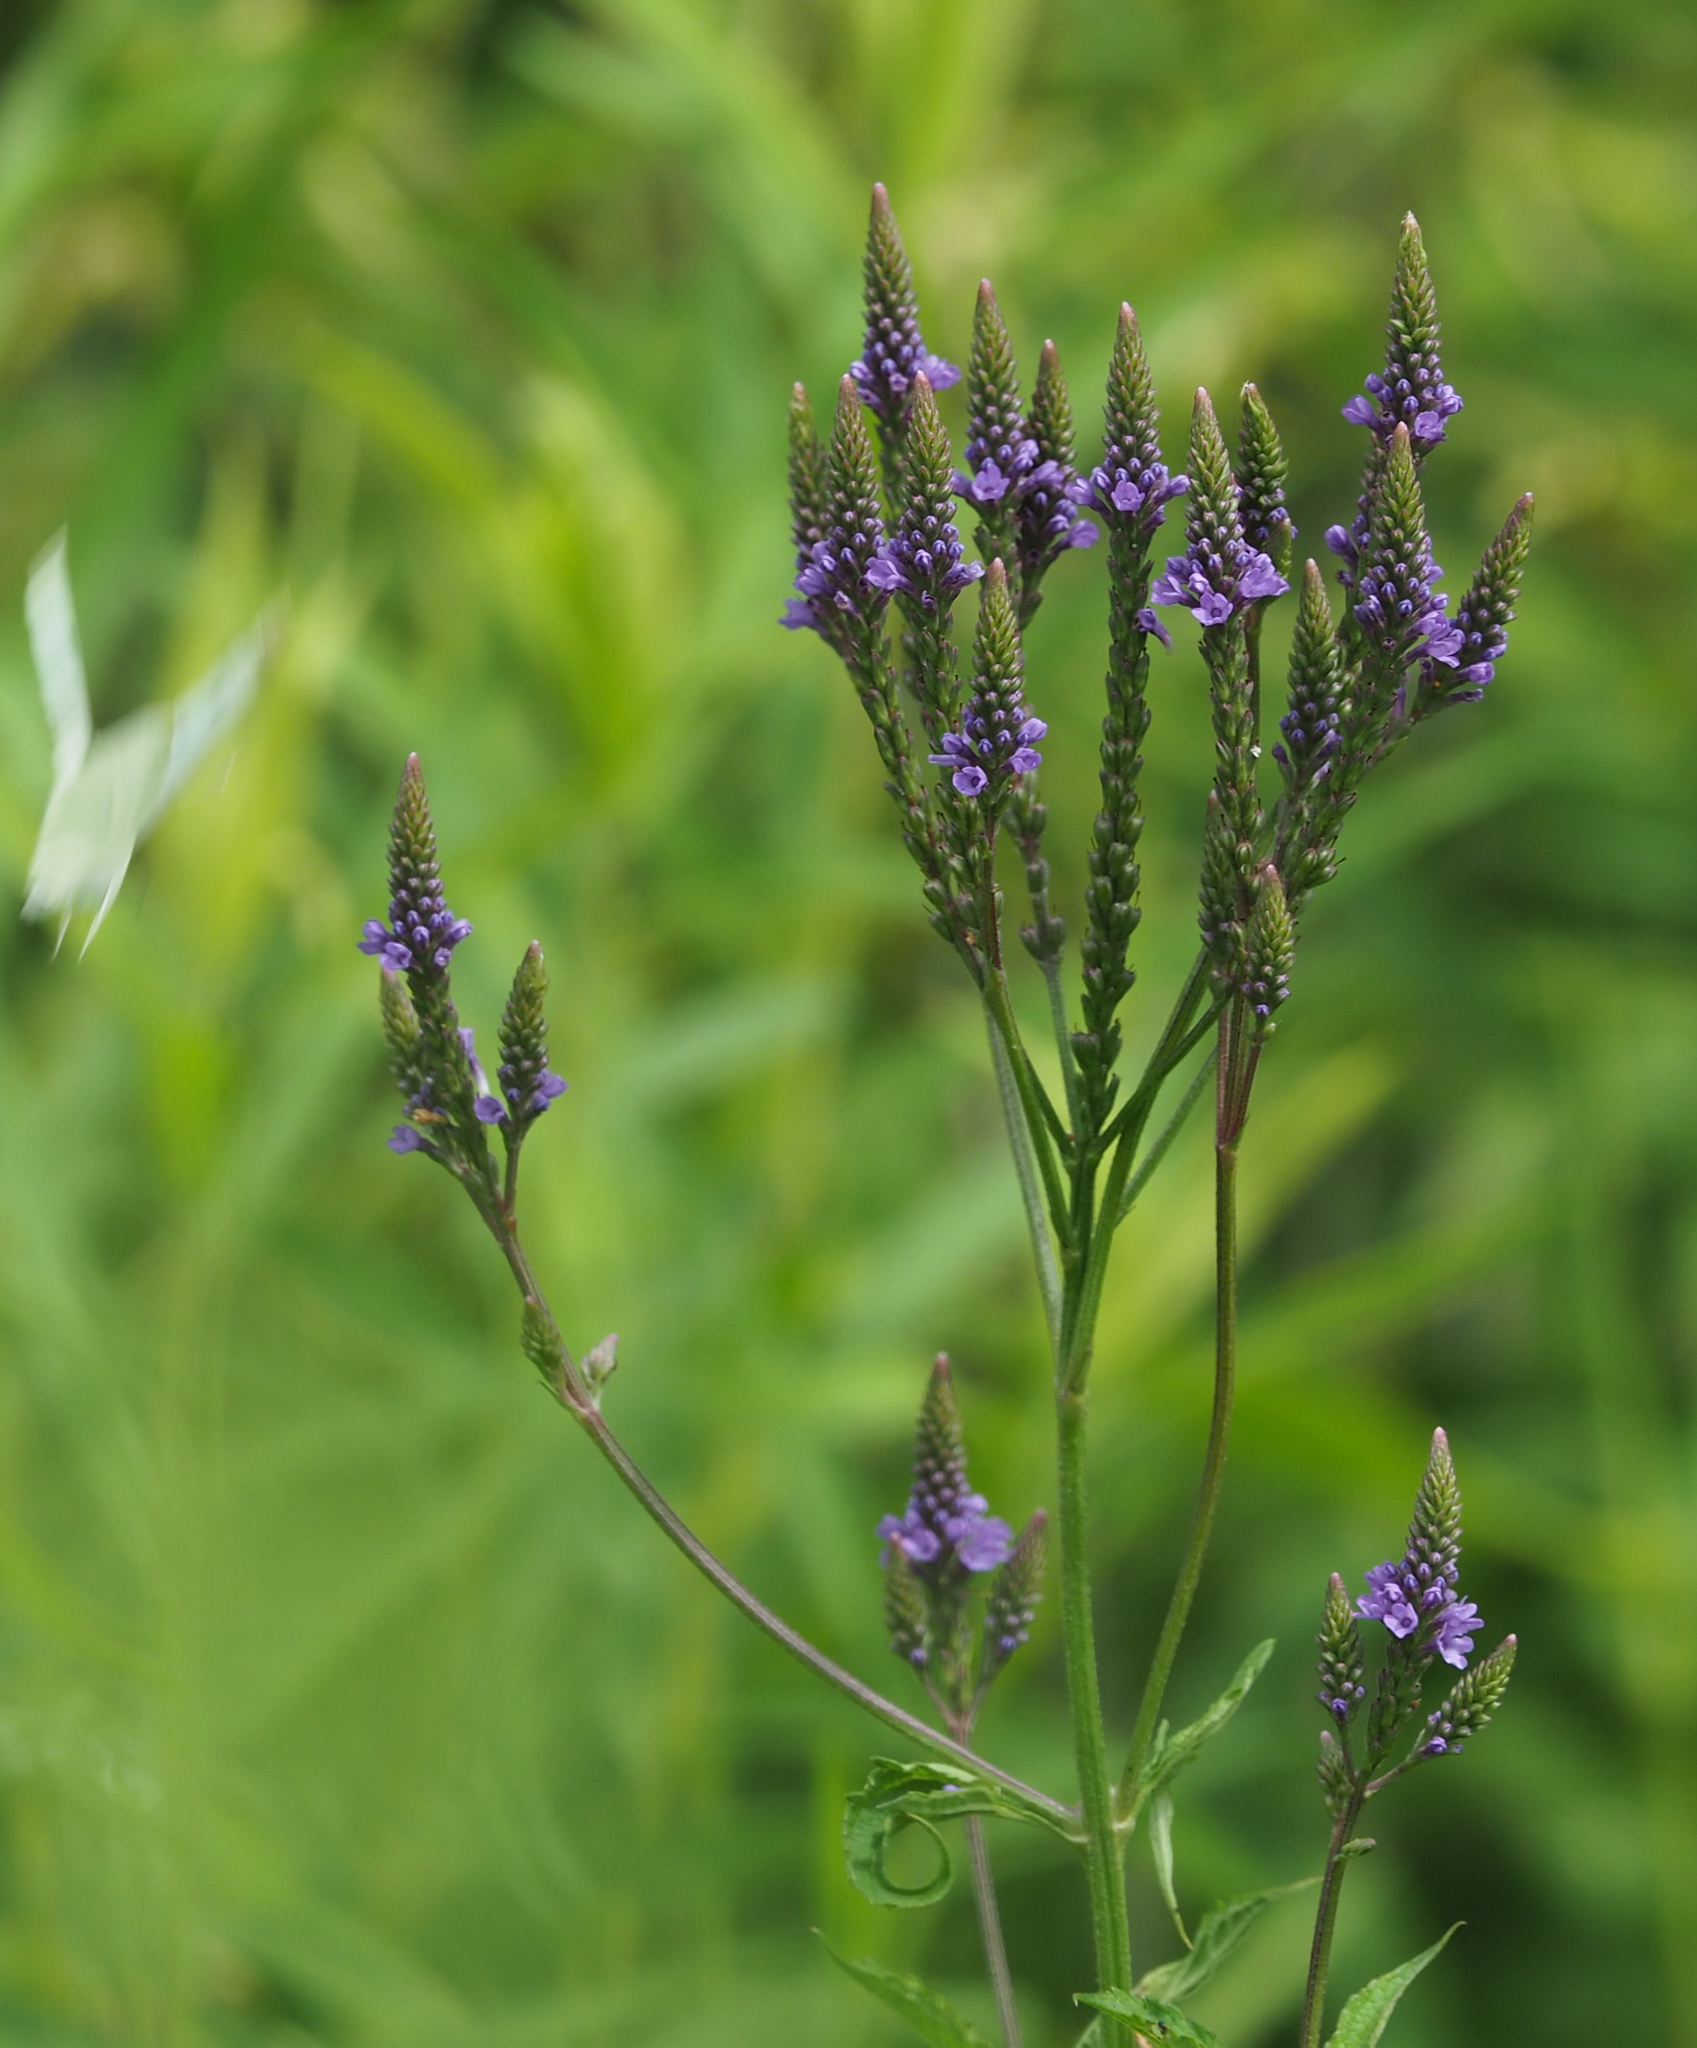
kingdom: Plantae
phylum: Tracheophyta
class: Magnoliopsida
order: Lamiales
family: Verbenaceae
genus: Verbena
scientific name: Verbena hastata
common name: American blue vervain
